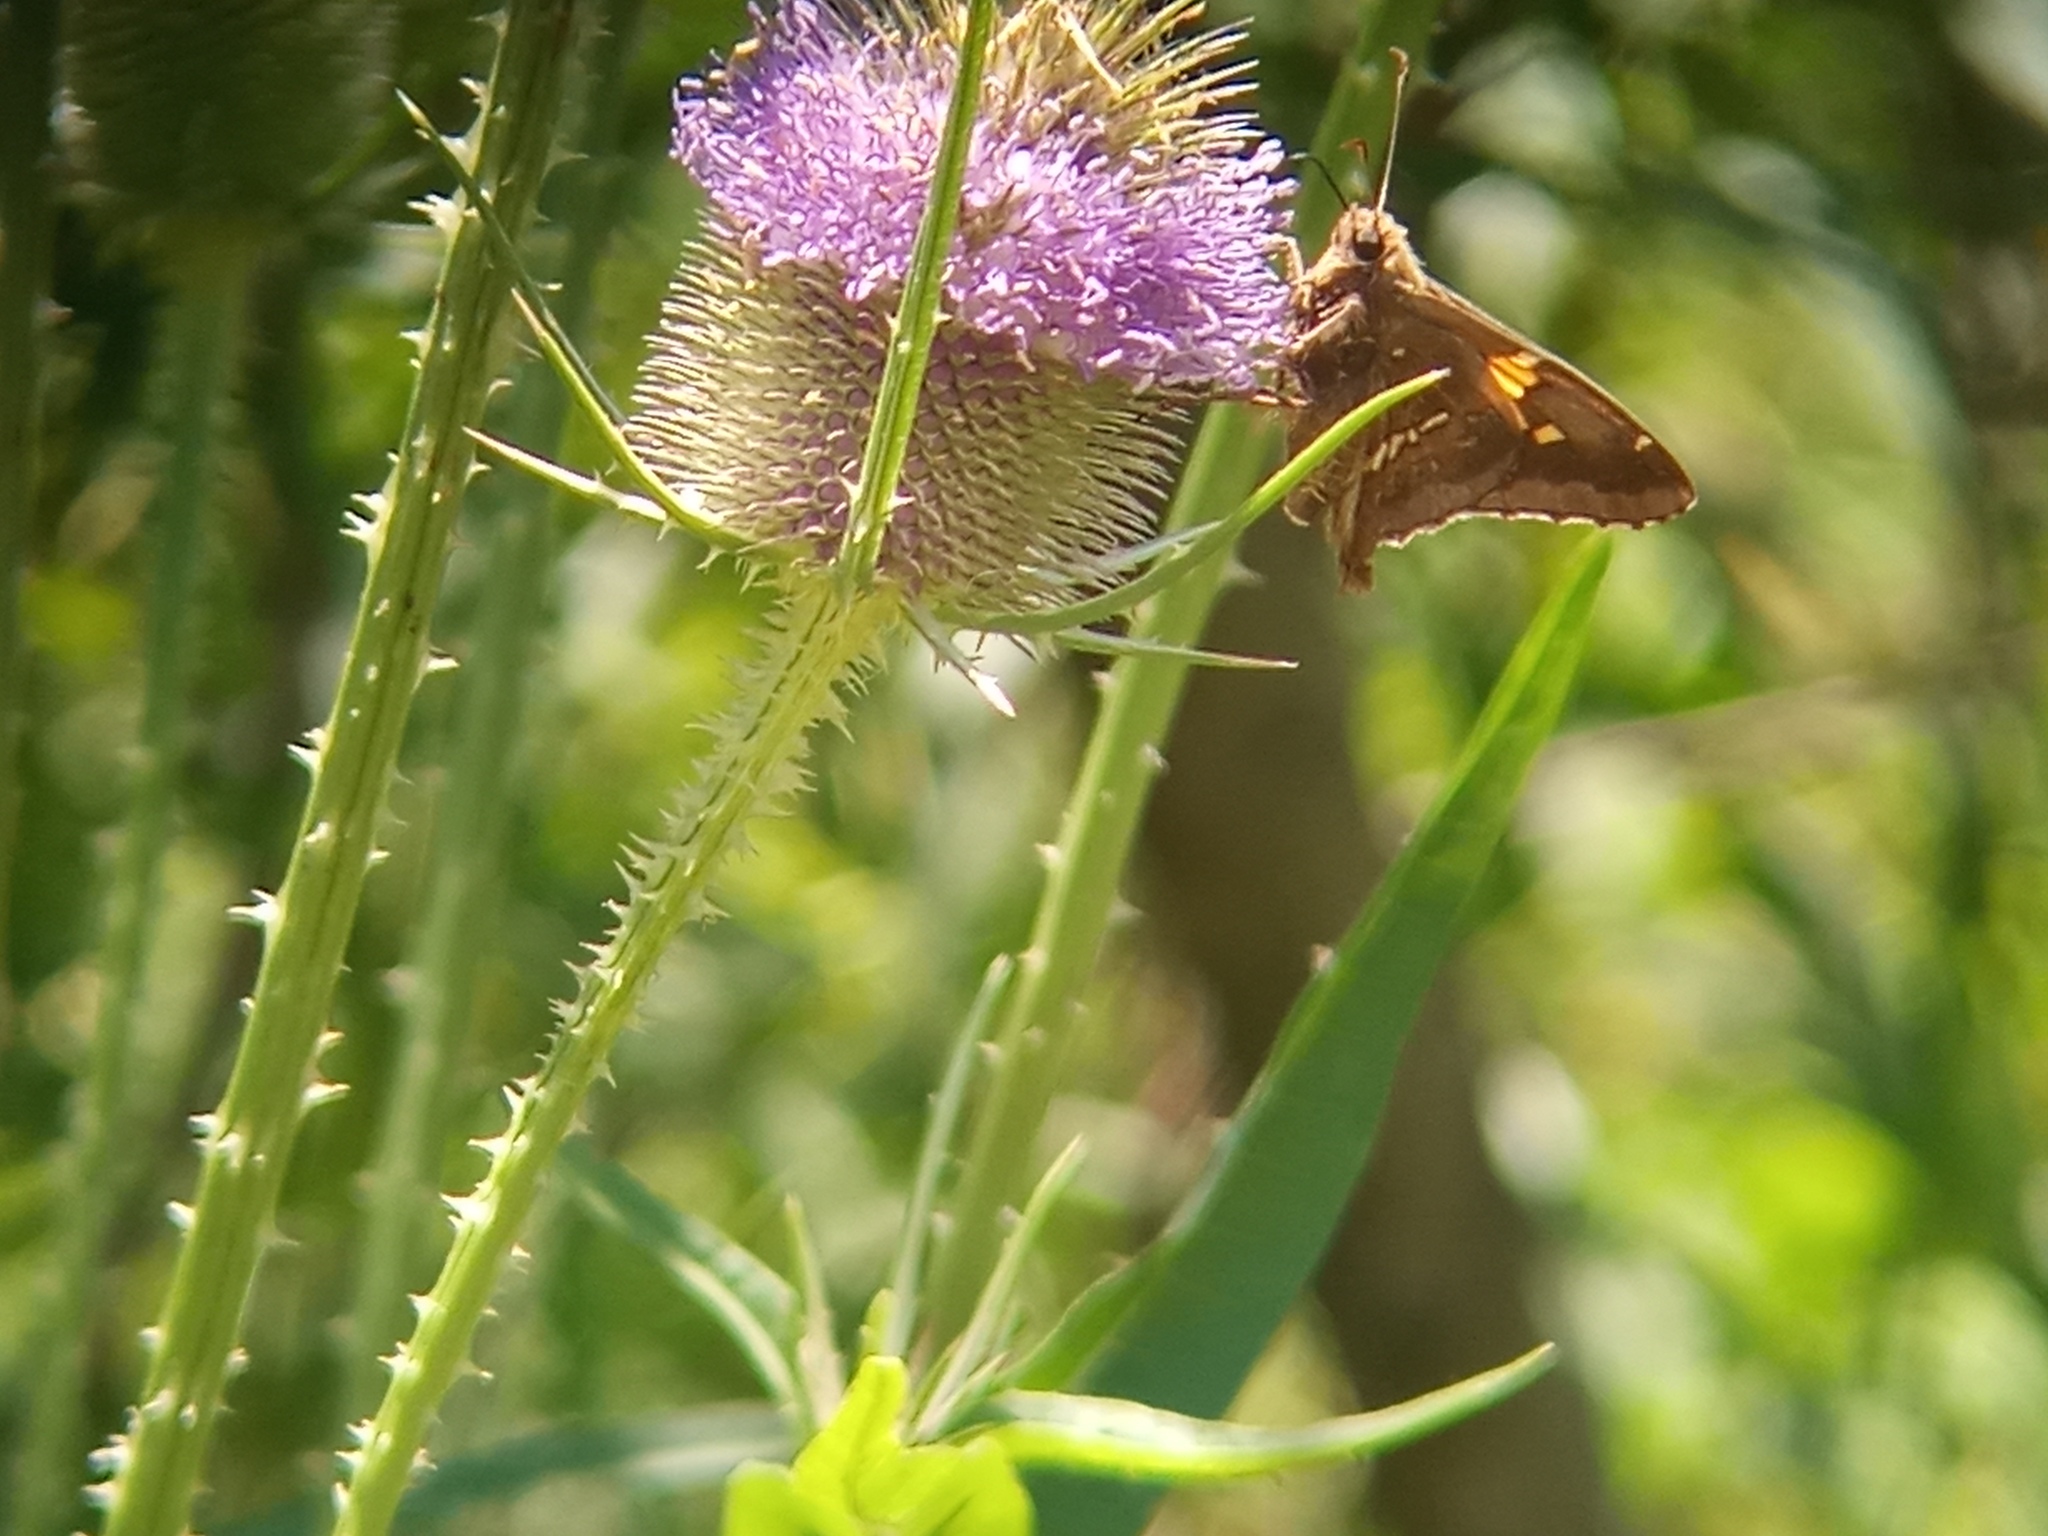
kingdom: Animalia
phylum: Arthropoda
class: Insecta
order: Lepidoptera
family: Hesperiidae
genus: Epargyreus
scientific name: Epargyreus tmolis
